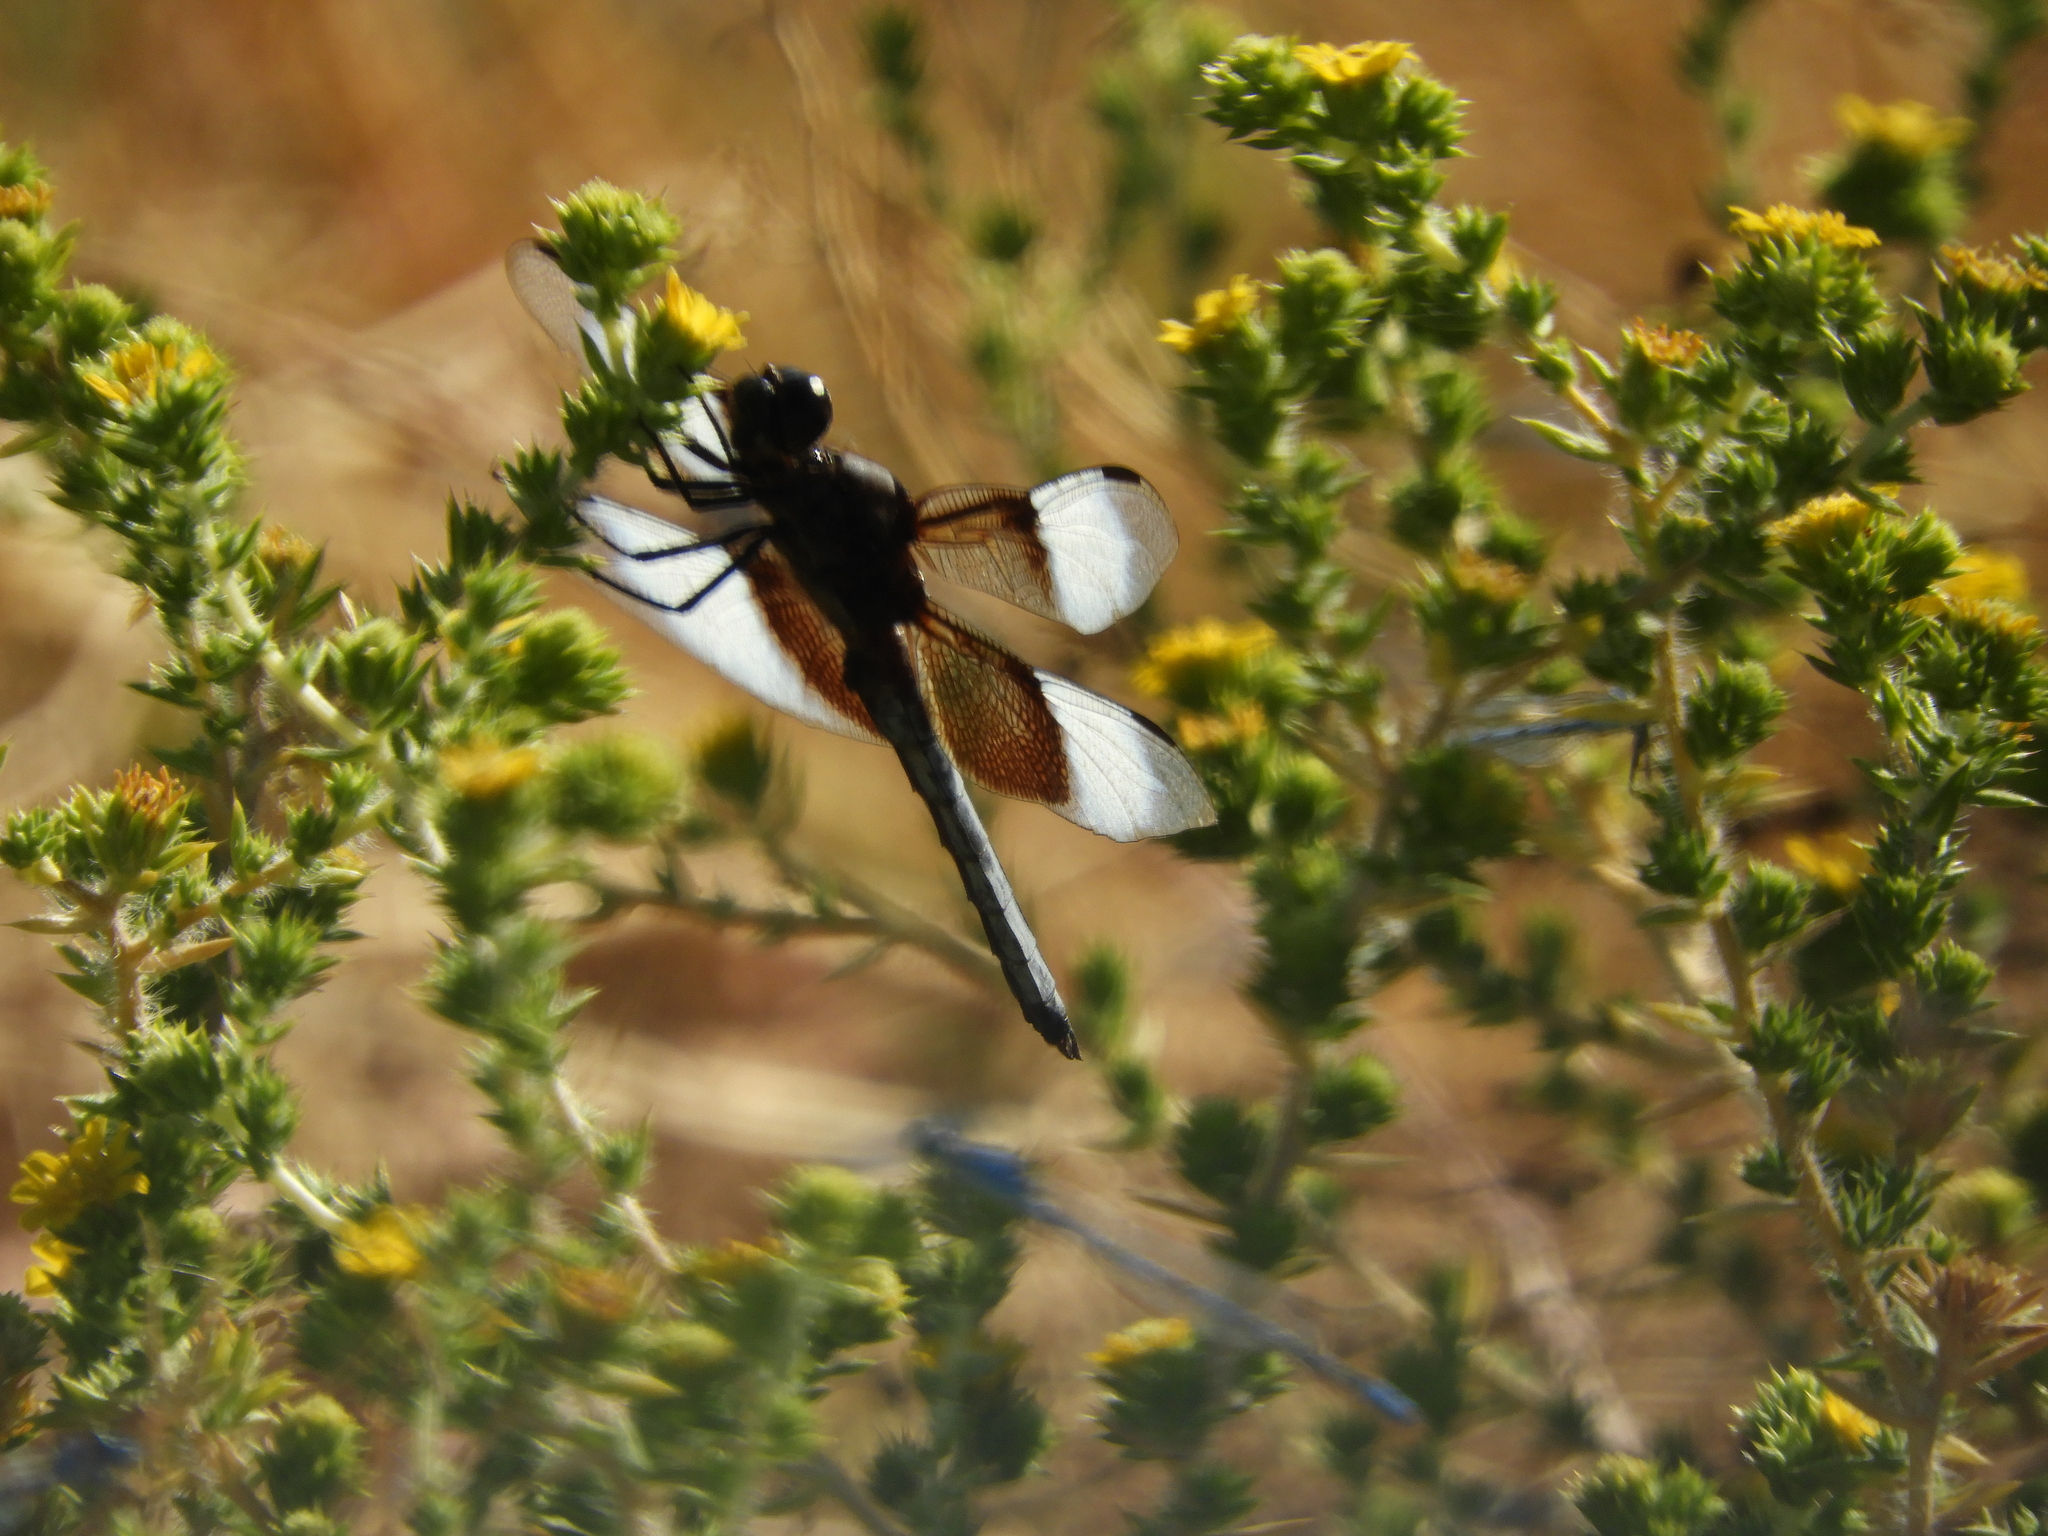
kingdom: Animalia
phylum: Arthropoda
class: Insecta
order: Odonata
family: Libellulidae
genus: Libellula
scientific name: Libellula luctuosa
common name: Widow skimmer
